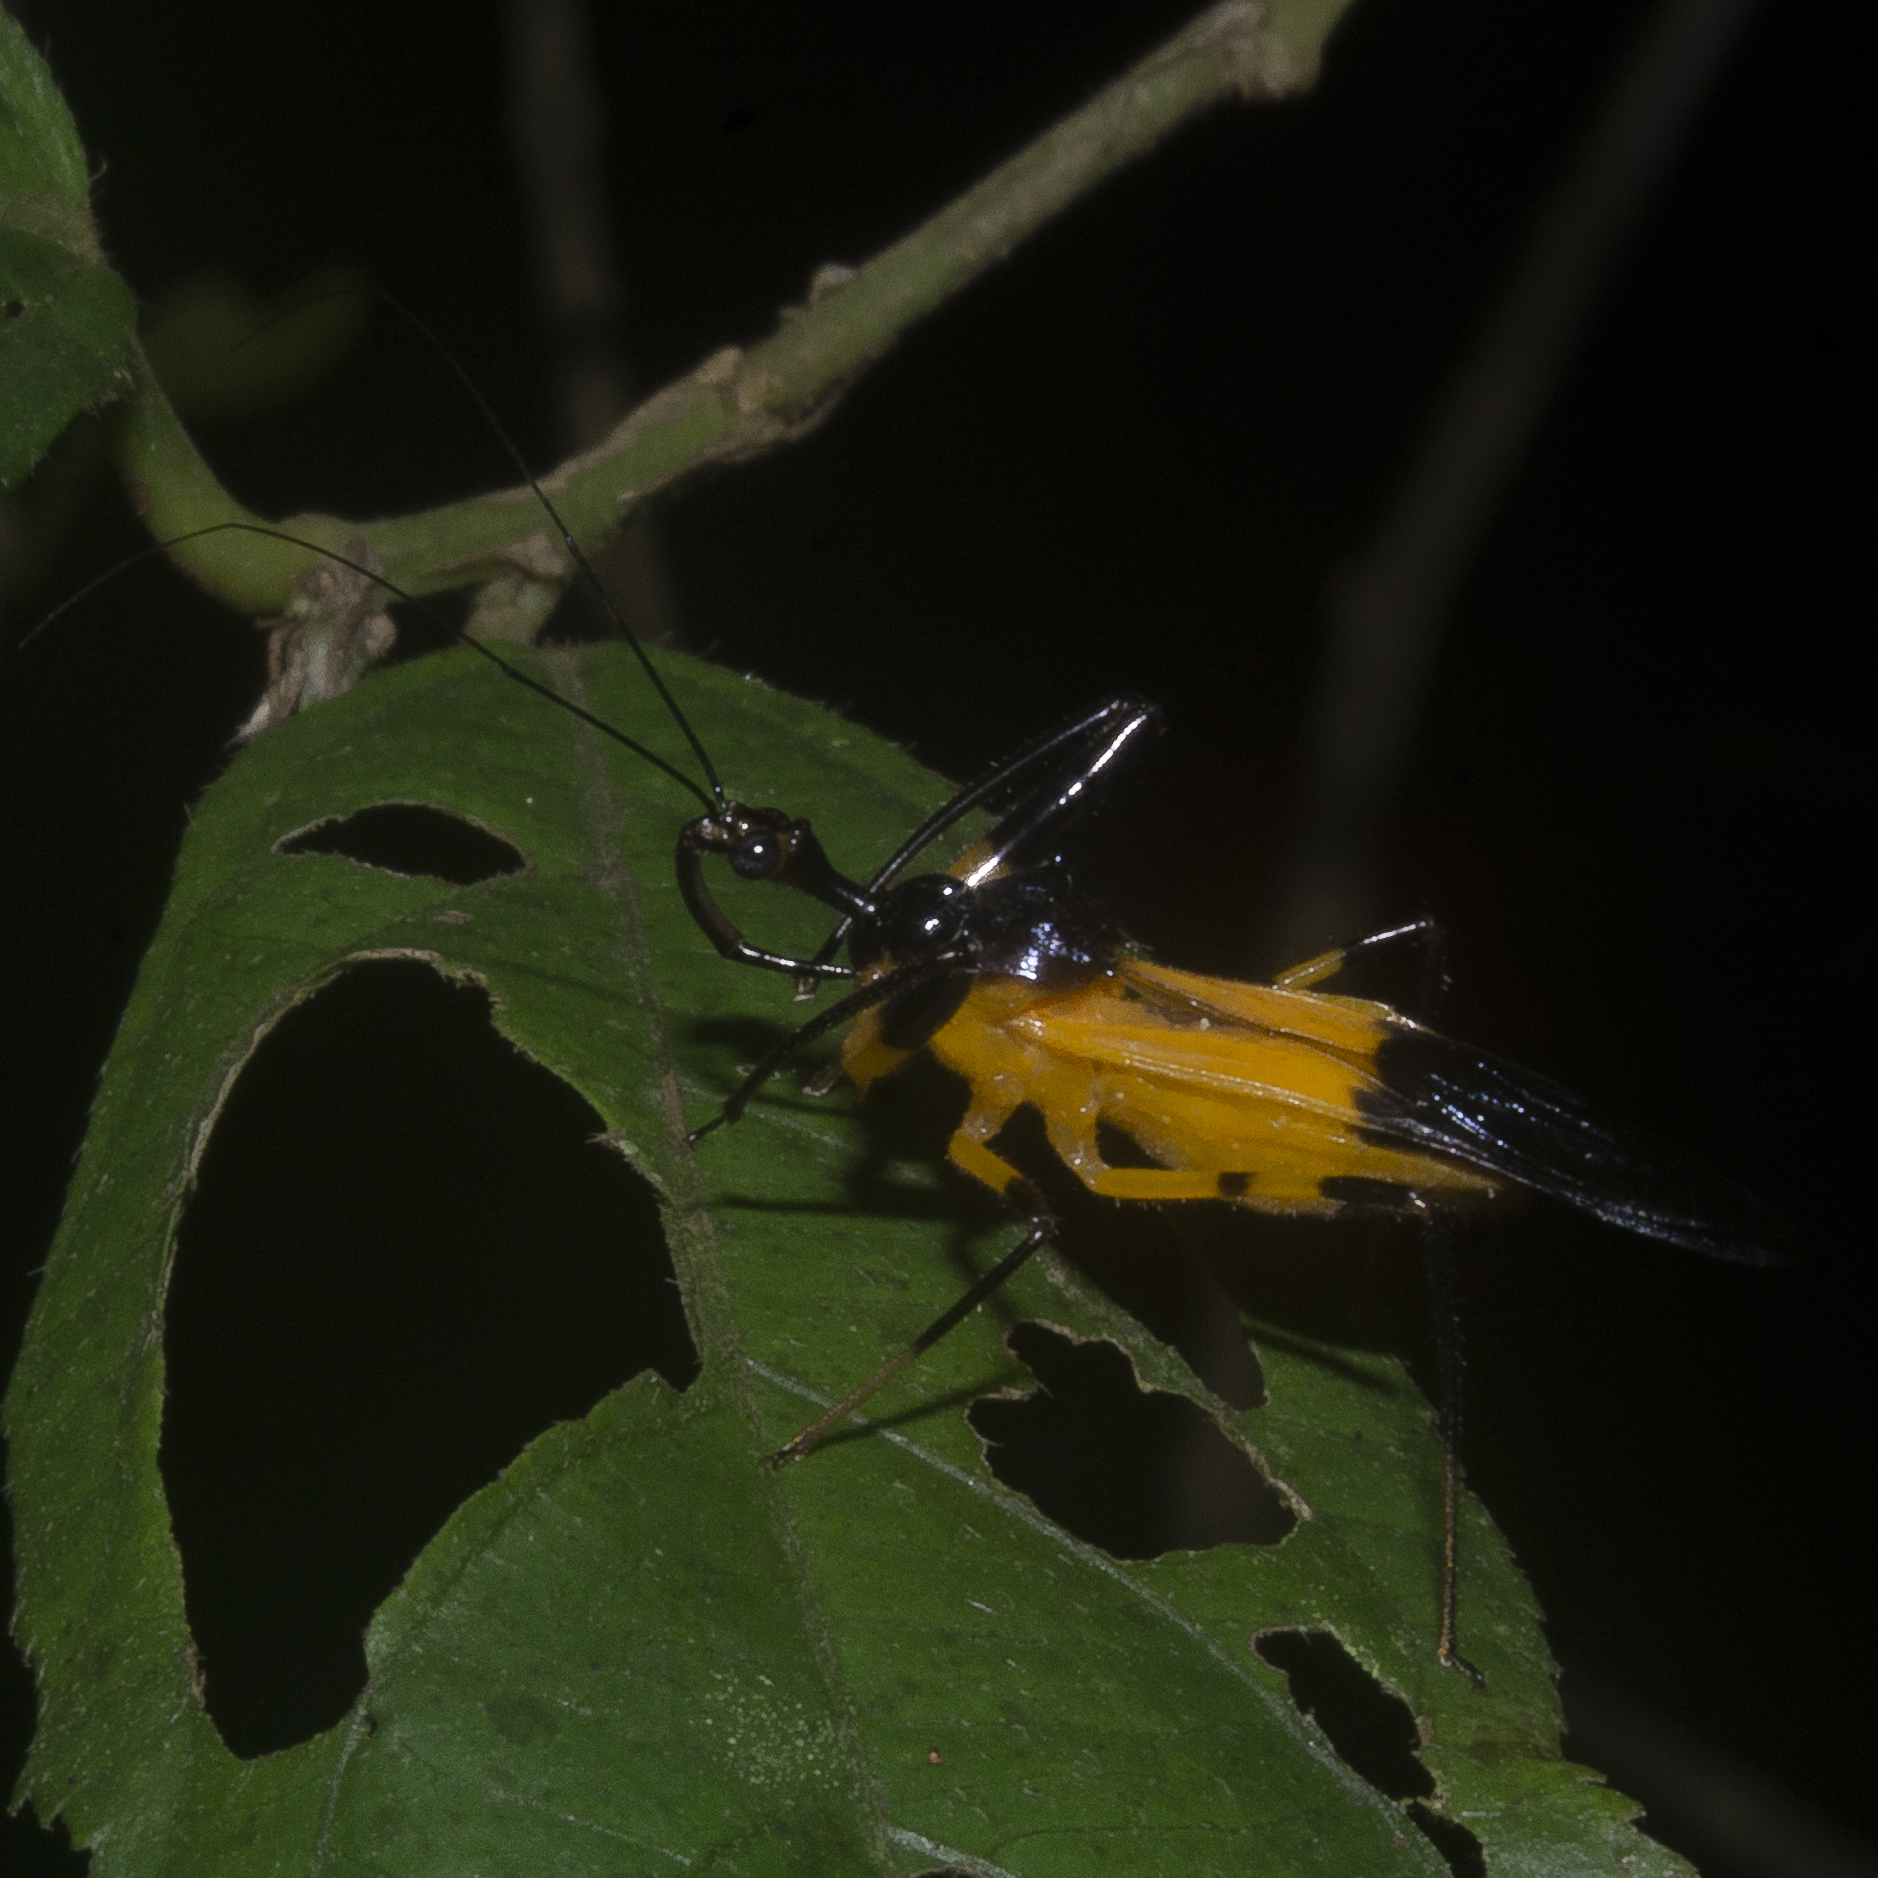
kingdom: Animalia
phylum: Arthropoda
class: Insecta
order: Hemiptera
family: Reduviidae
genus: Acanthischium
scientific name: Acanthischium
